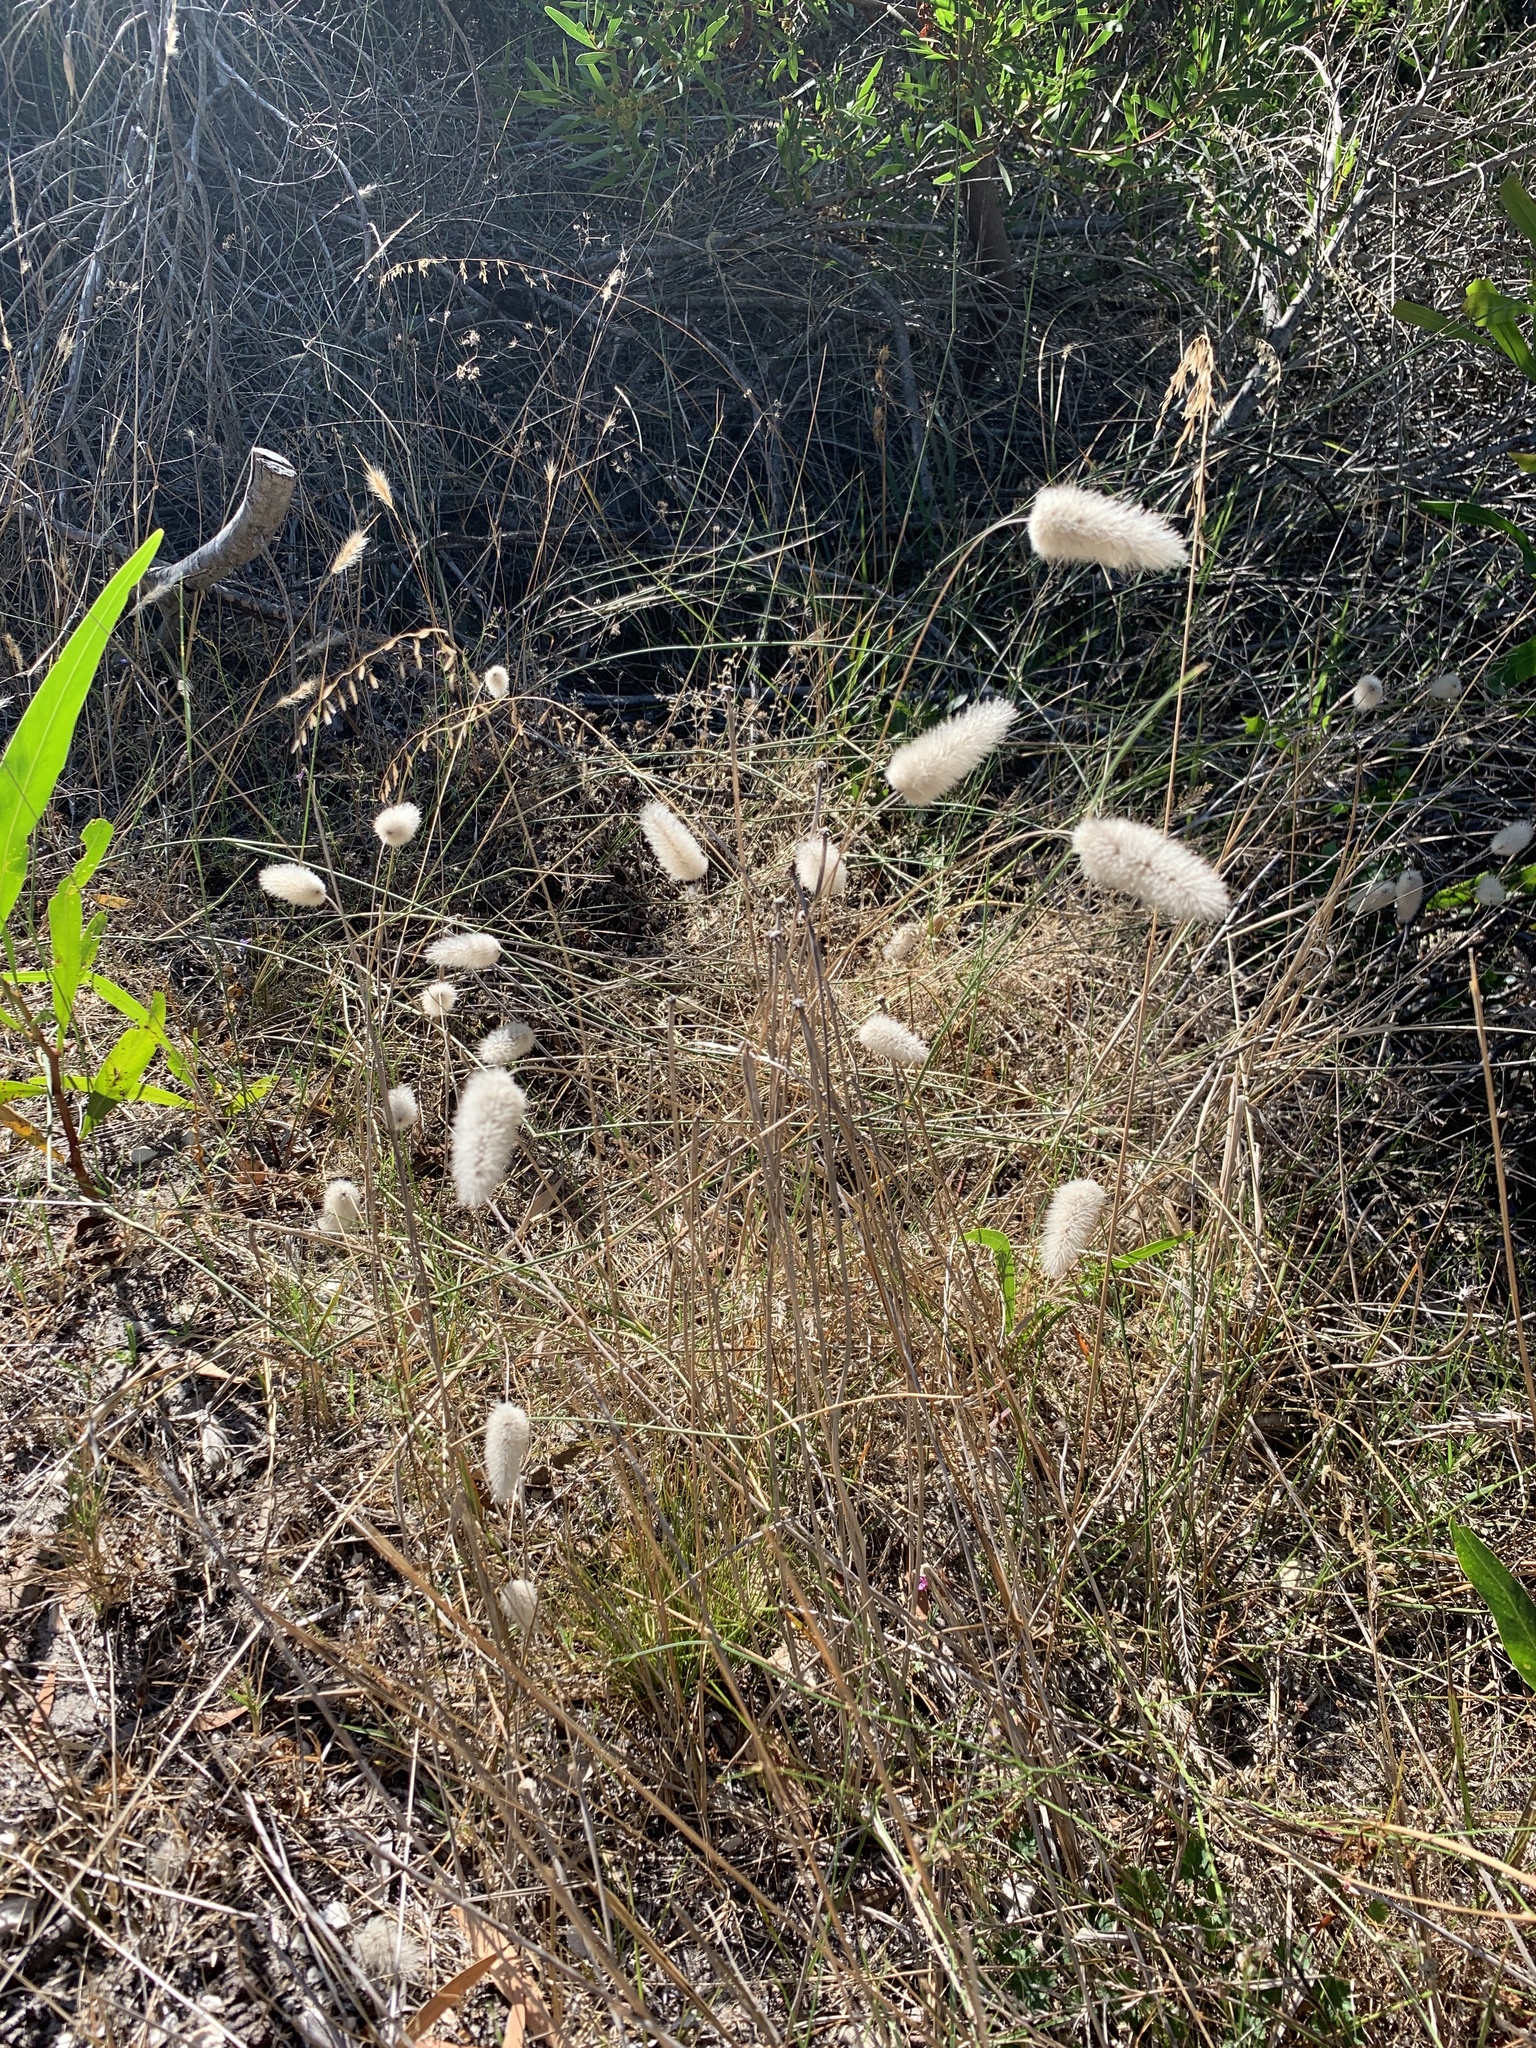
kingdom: Plantae
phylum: Tracheophyta
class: Liliopsida
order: Poales
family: Poaceae
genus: Lagurus
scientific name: Lagurus ovatus
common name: Hare's-tail
